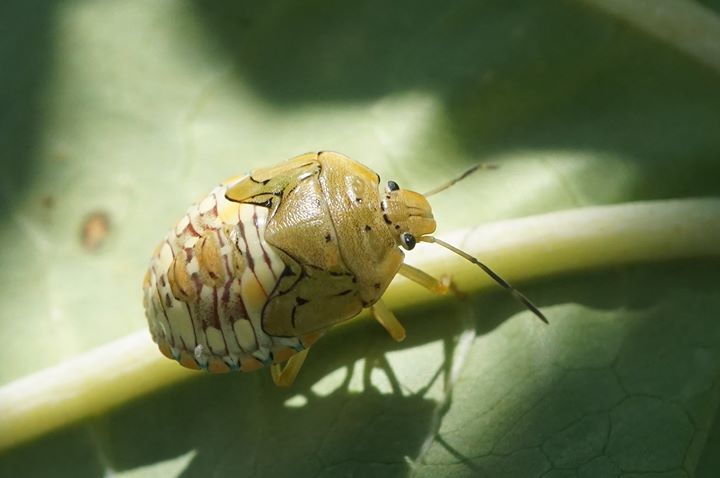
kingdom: Animalia
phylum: Arthropoda
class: Insecta
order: Hemiptera
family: Pentatomidae
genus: Acrosternum
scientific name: Acrosternum marginatum
